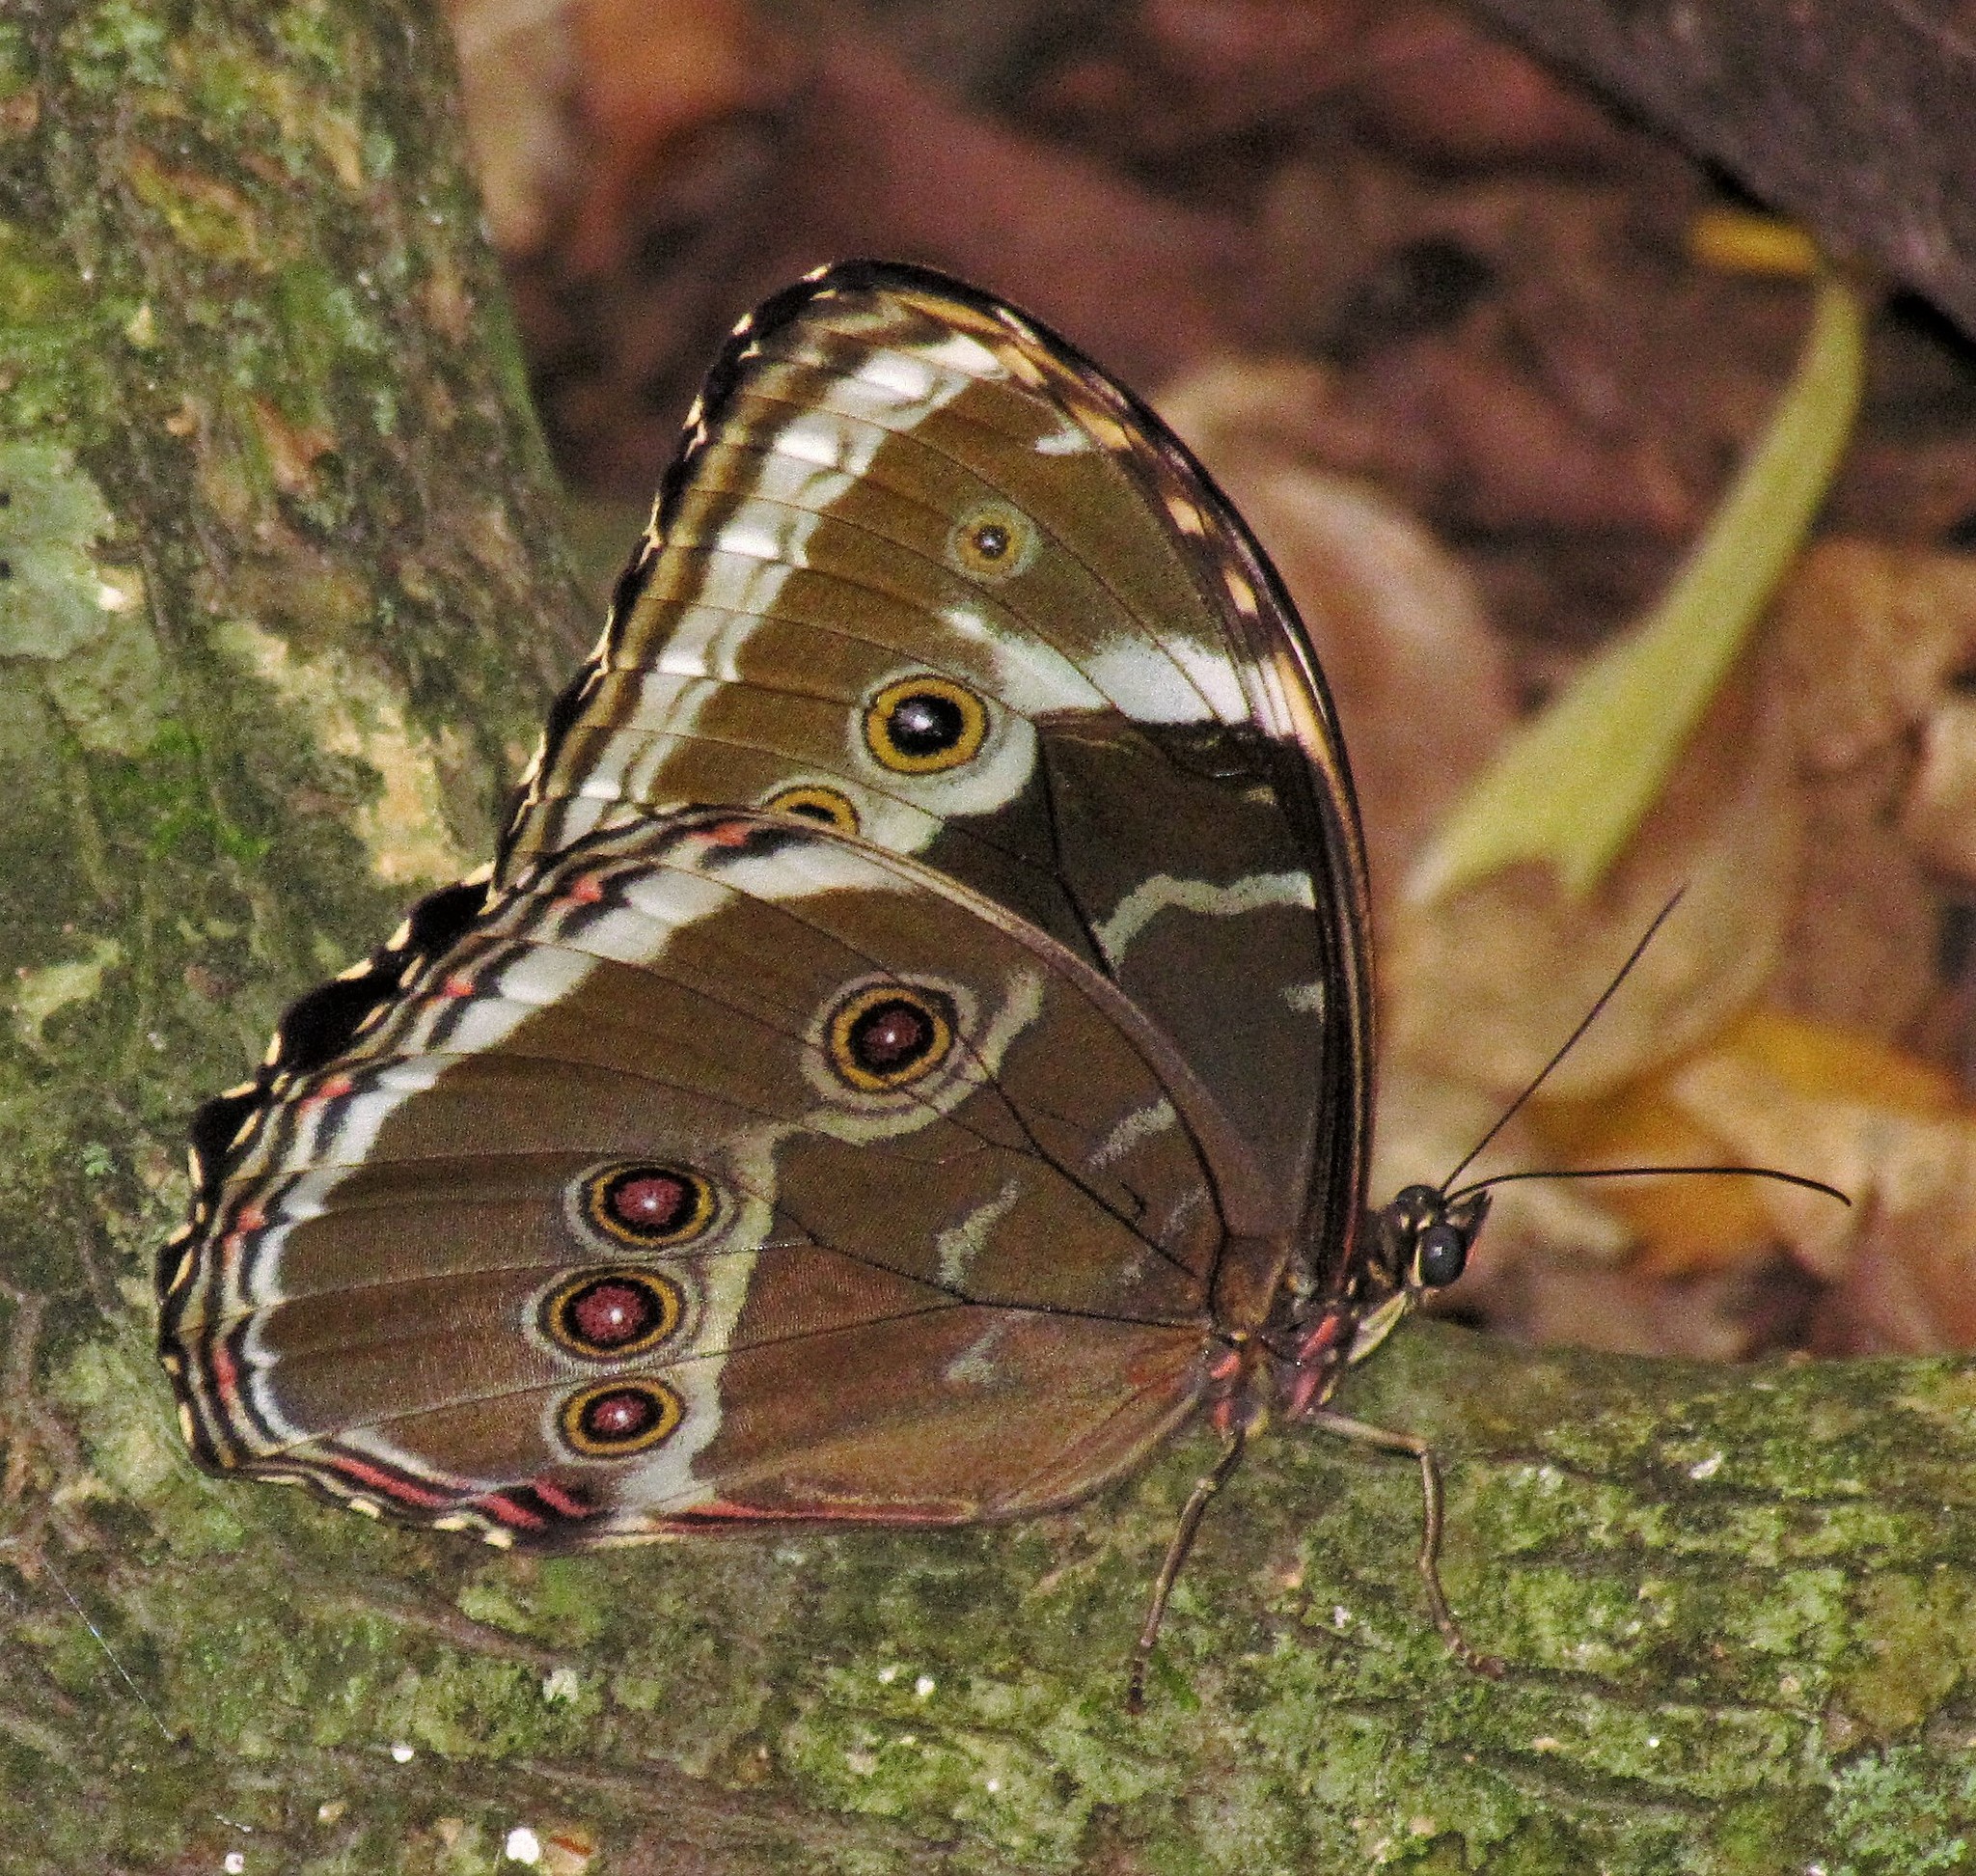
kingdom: Animalia
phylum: Arthropoda
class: Insecta
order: Lepidoptera
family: Nymphalidae
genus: Morpho
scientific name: Morpho helenor
